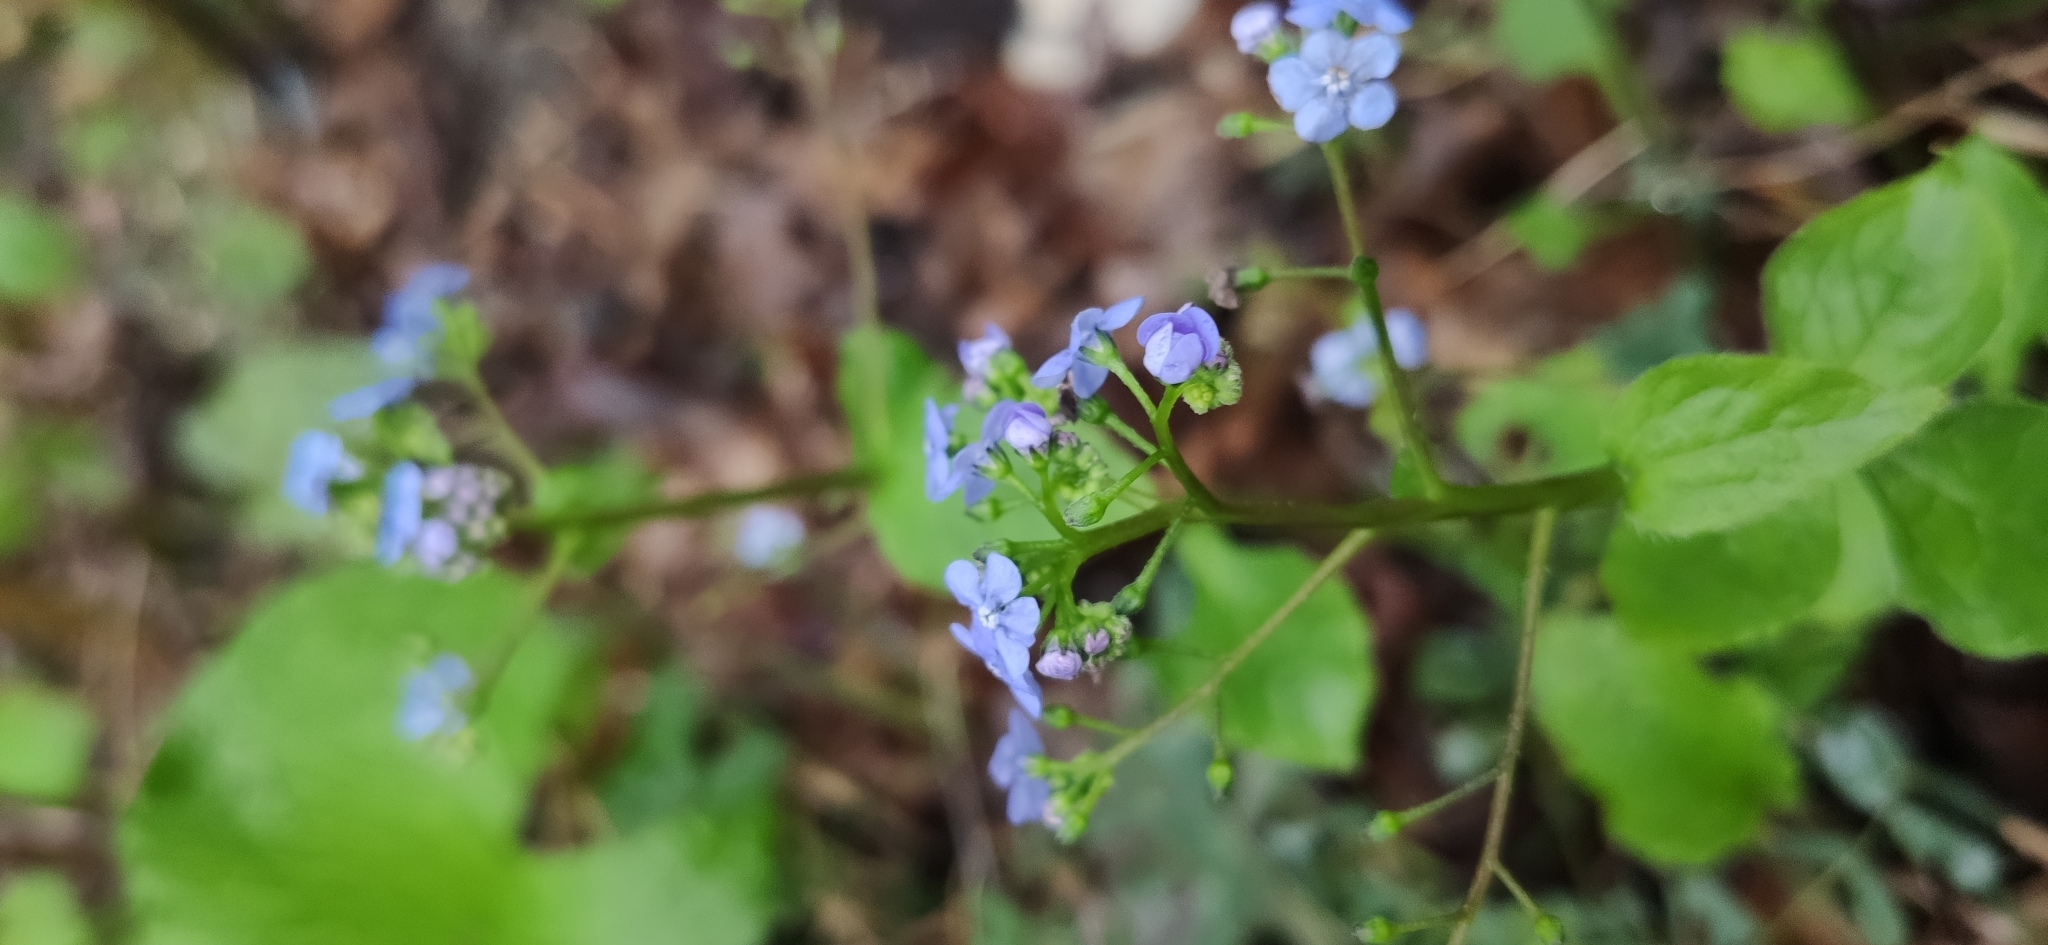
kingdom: Plantae
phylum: Tracheophyta
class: Magnoliopsida
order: Boraginales
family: Boraginaceae
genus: Brunnera
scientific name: Brunnera macrophylla
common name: Great forget-me-not
